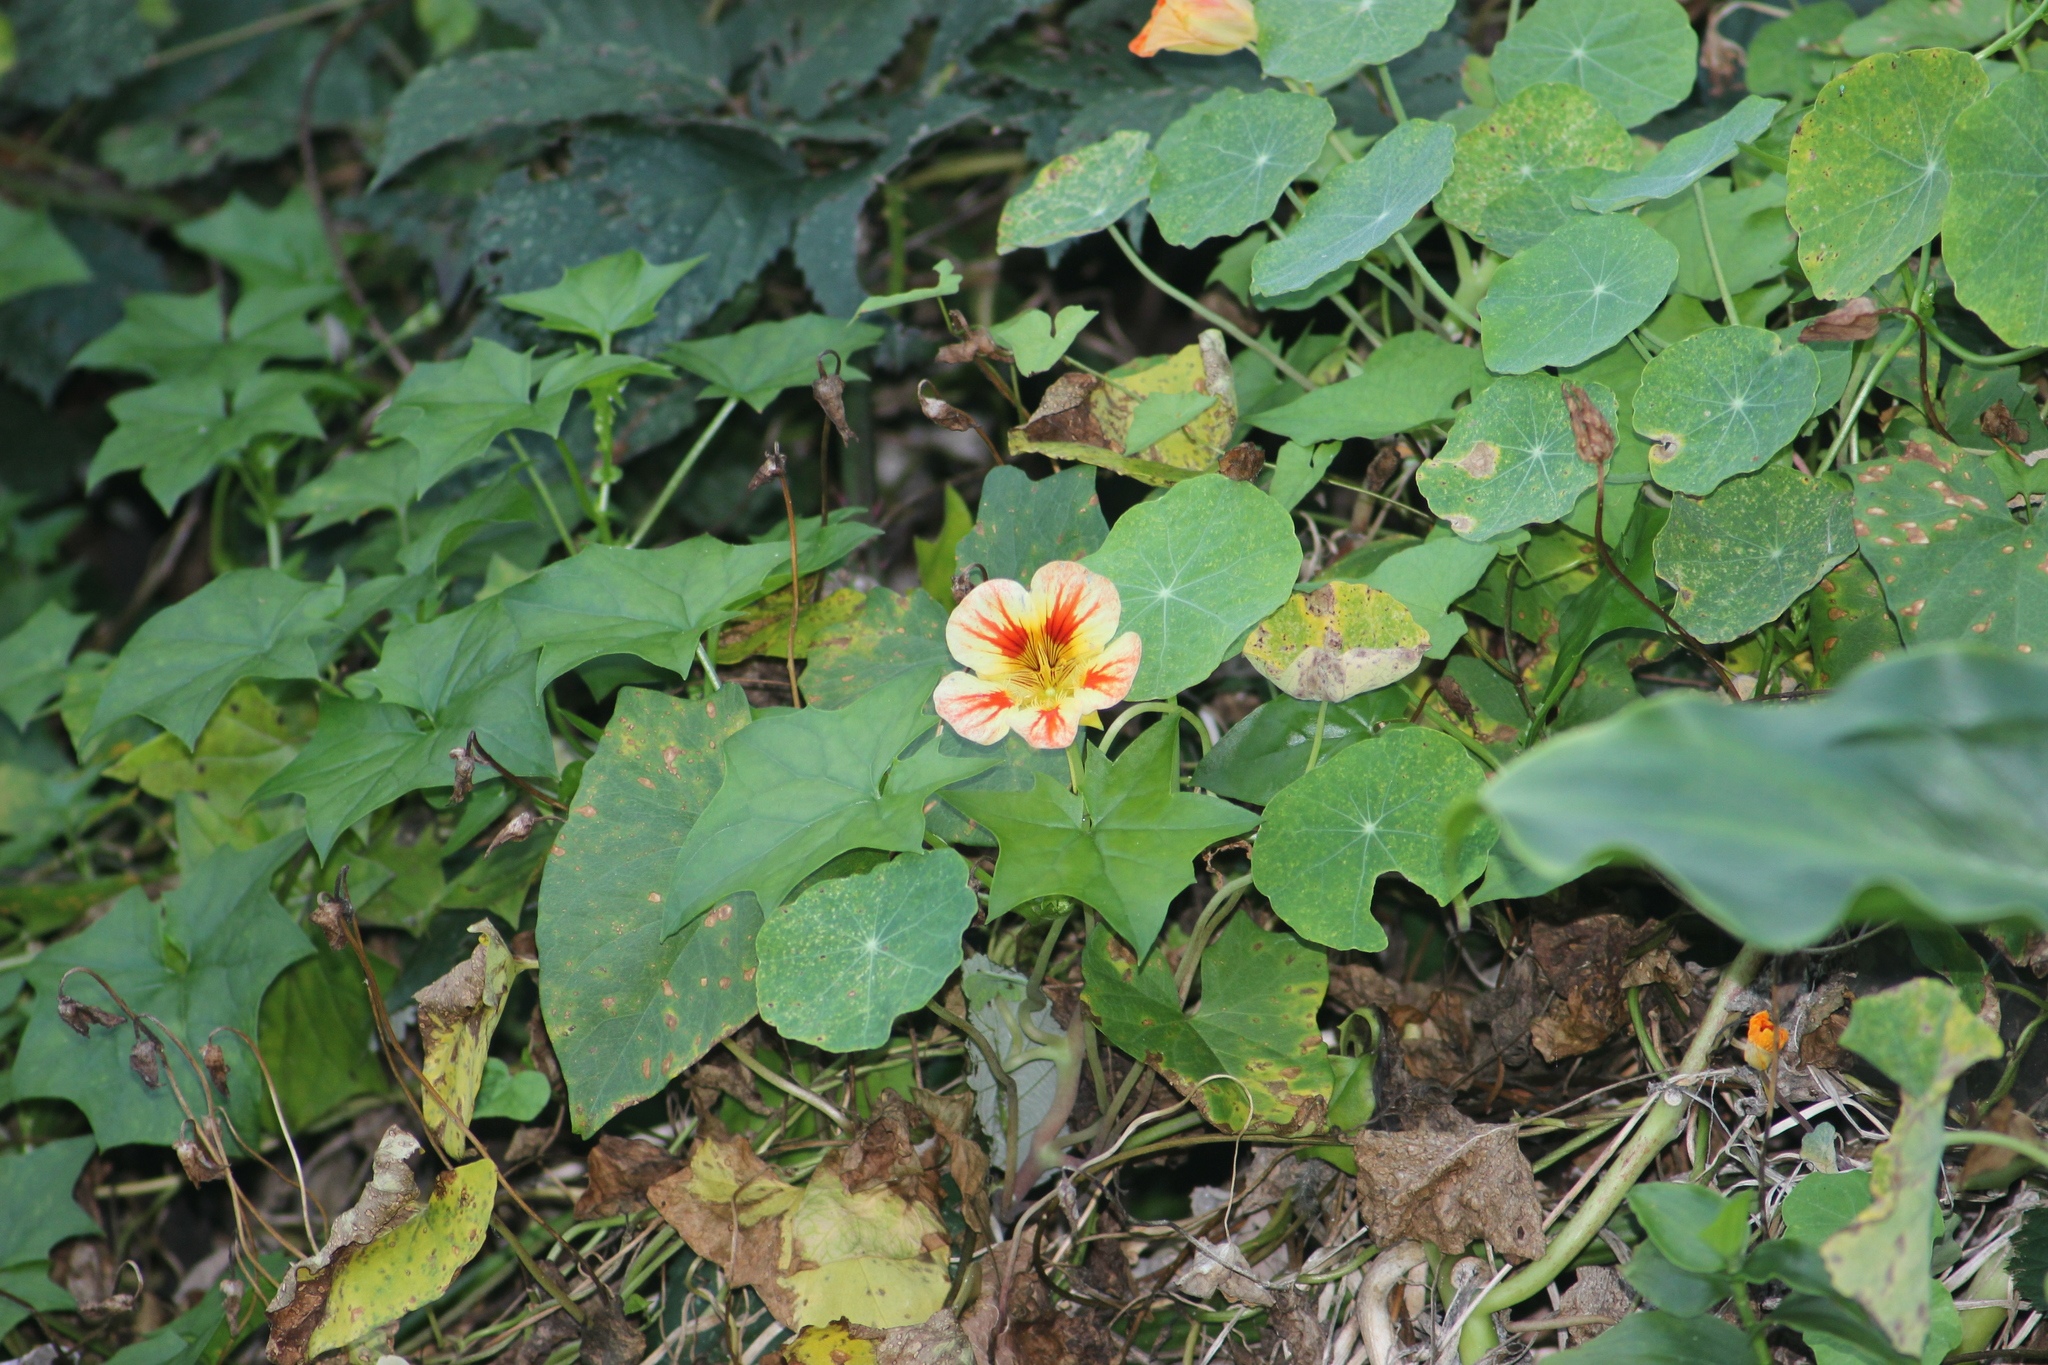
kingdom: Plantae
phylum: Tracheophyta
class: Magnoliopsida
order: Brassicales
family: Tropaeolaceae
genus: Tropaeolum
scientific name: Tropaeolum majus
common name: Nasturtium
